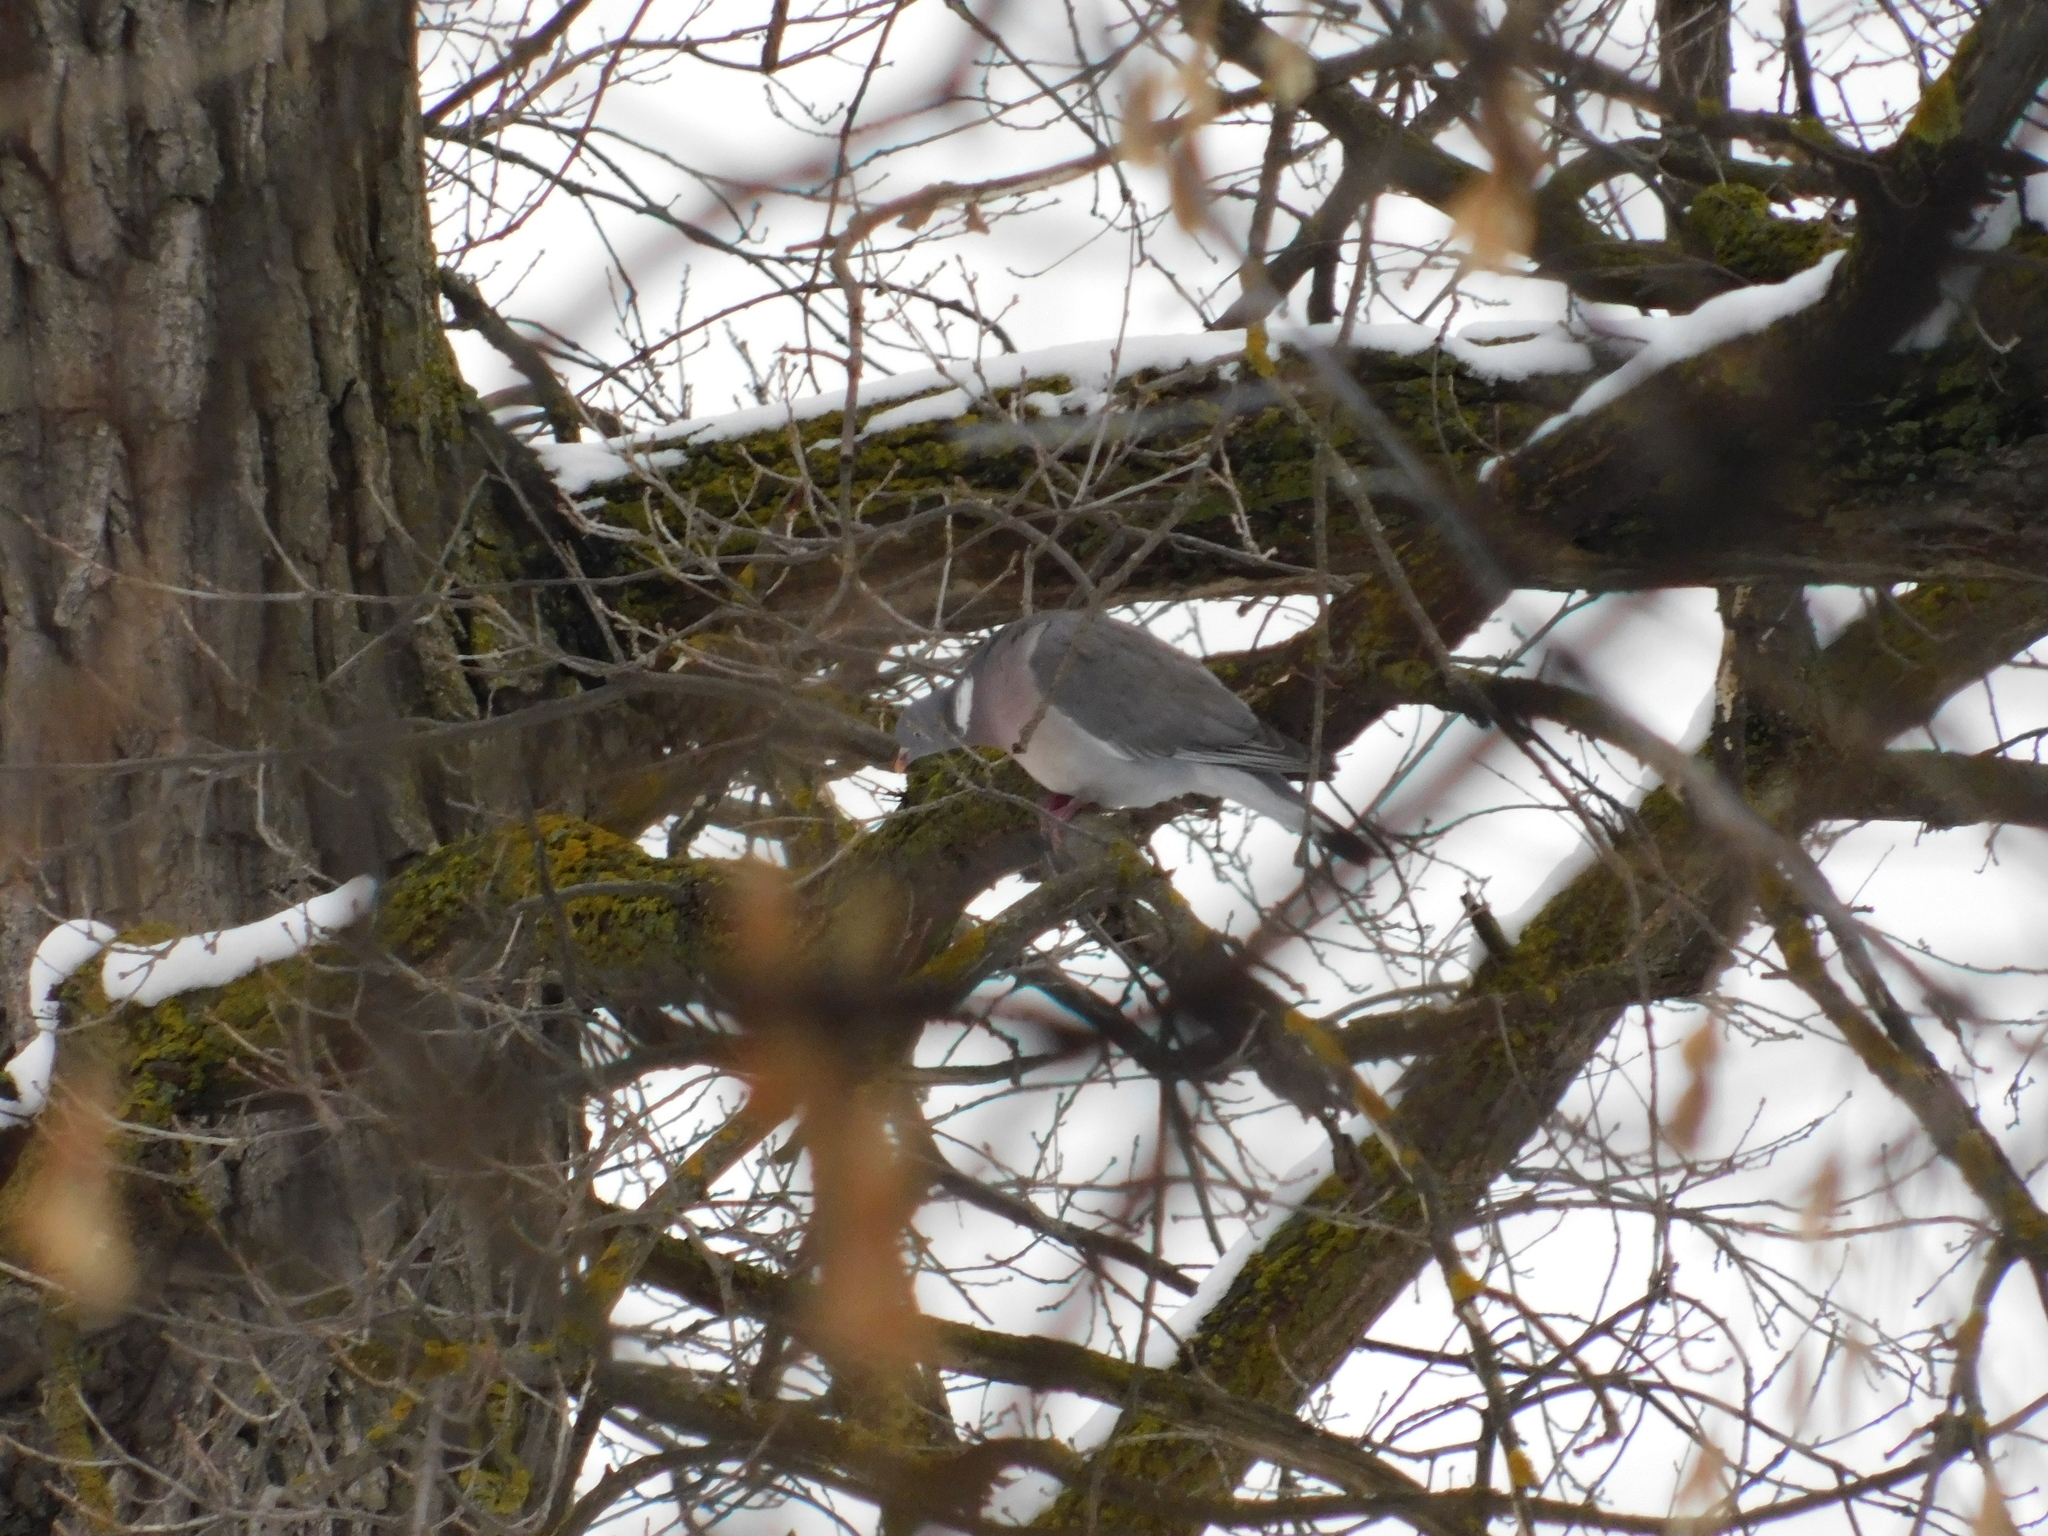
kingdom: Animalia
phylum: Chordata
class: Aves
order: Columbiformes
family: Columbidae
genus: Columba
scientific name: Columba palumbus
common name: Common wood pigeon
